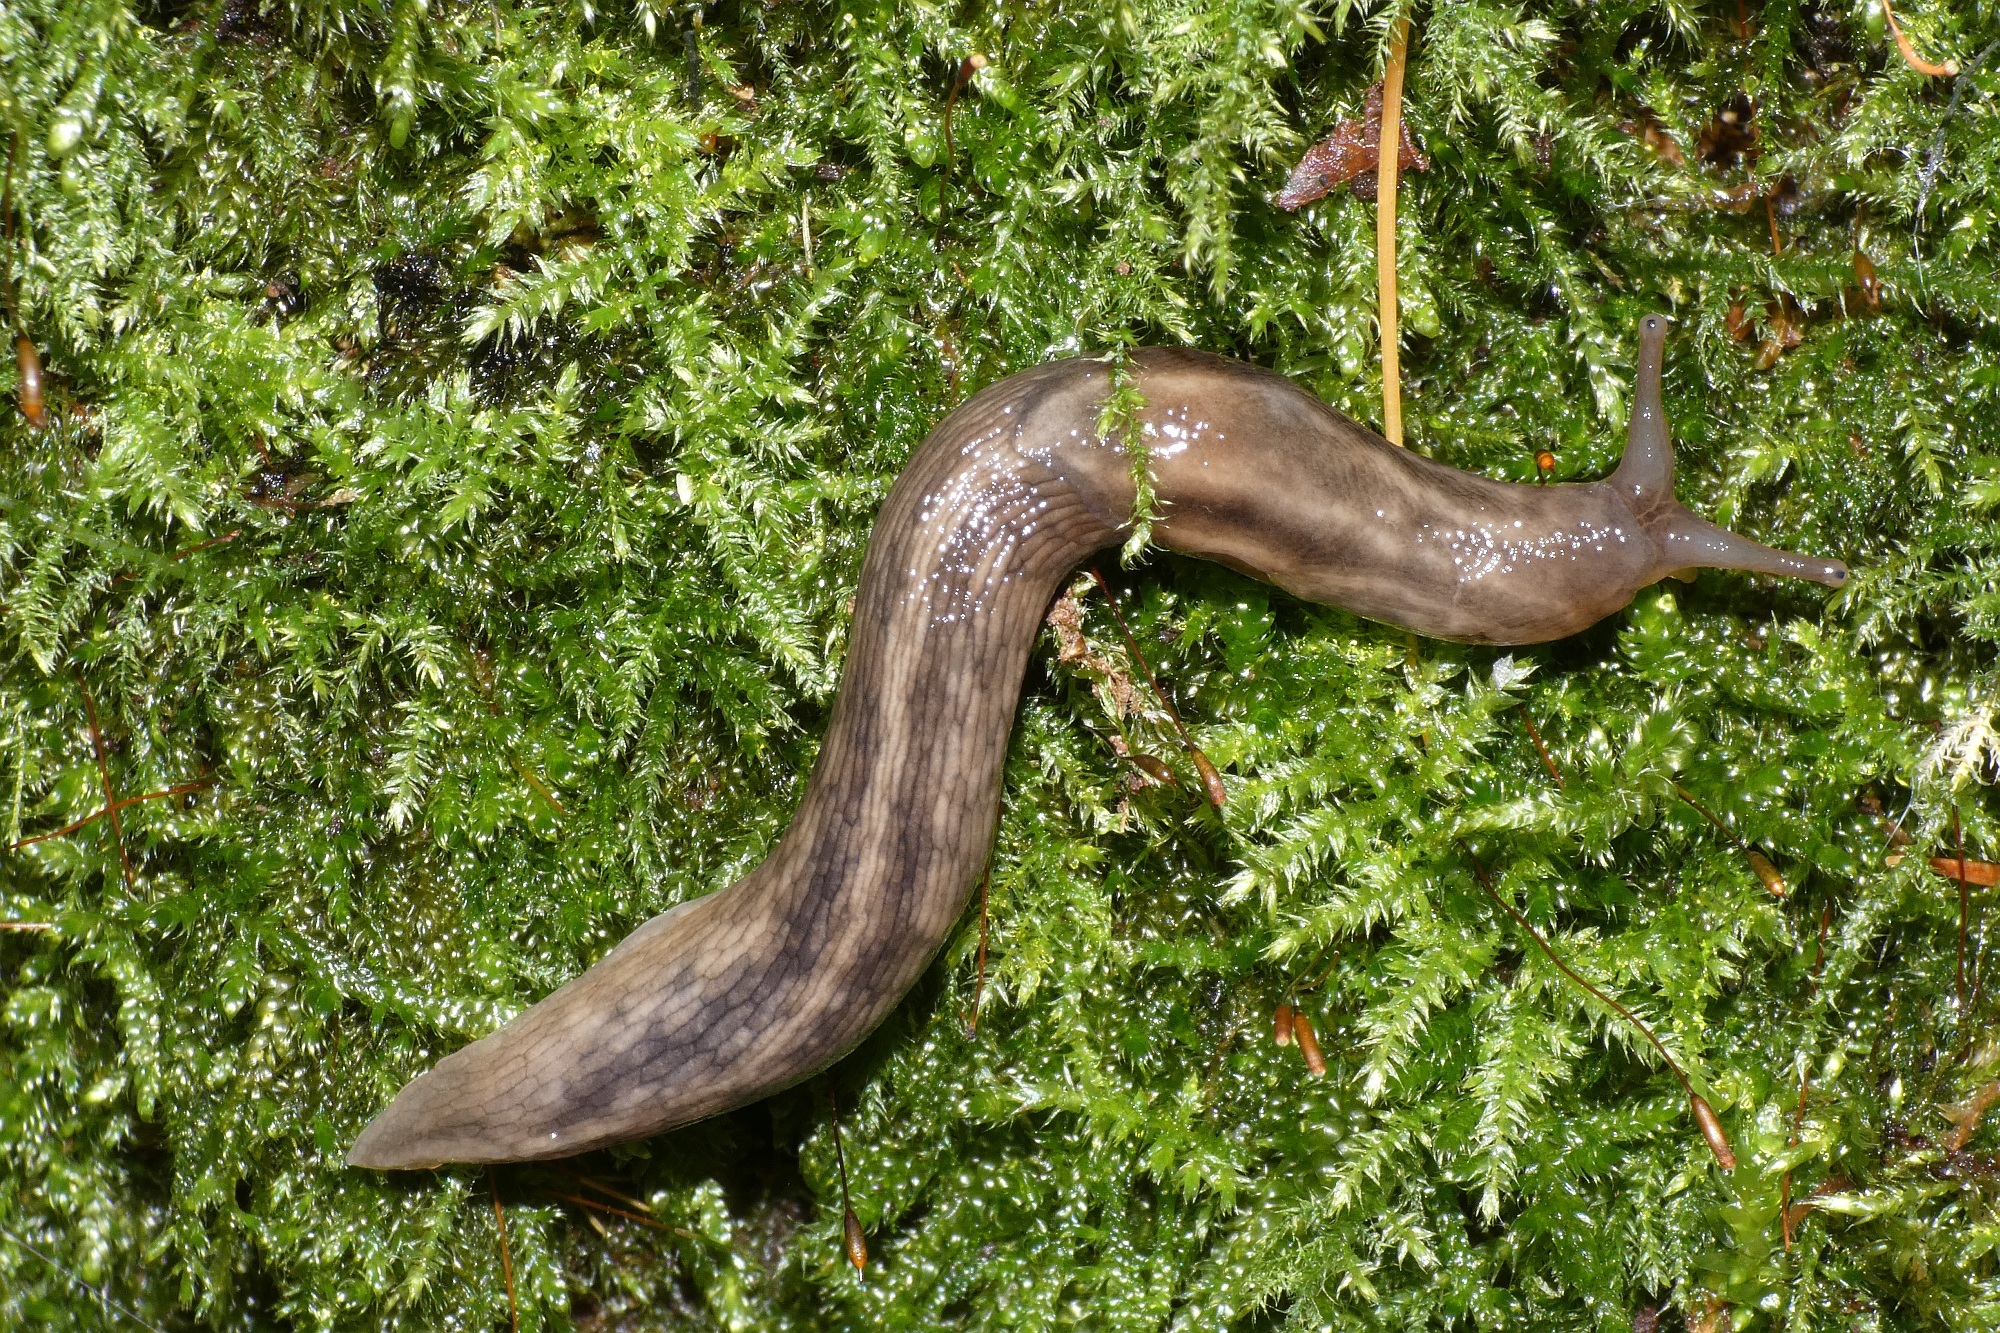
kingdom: Animalia
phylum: Mollusca
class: Gastropoda
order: Stylommatophora
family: Limacidae
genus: Lehmannia
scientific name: Lehmannia marginata
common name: Tree slug
